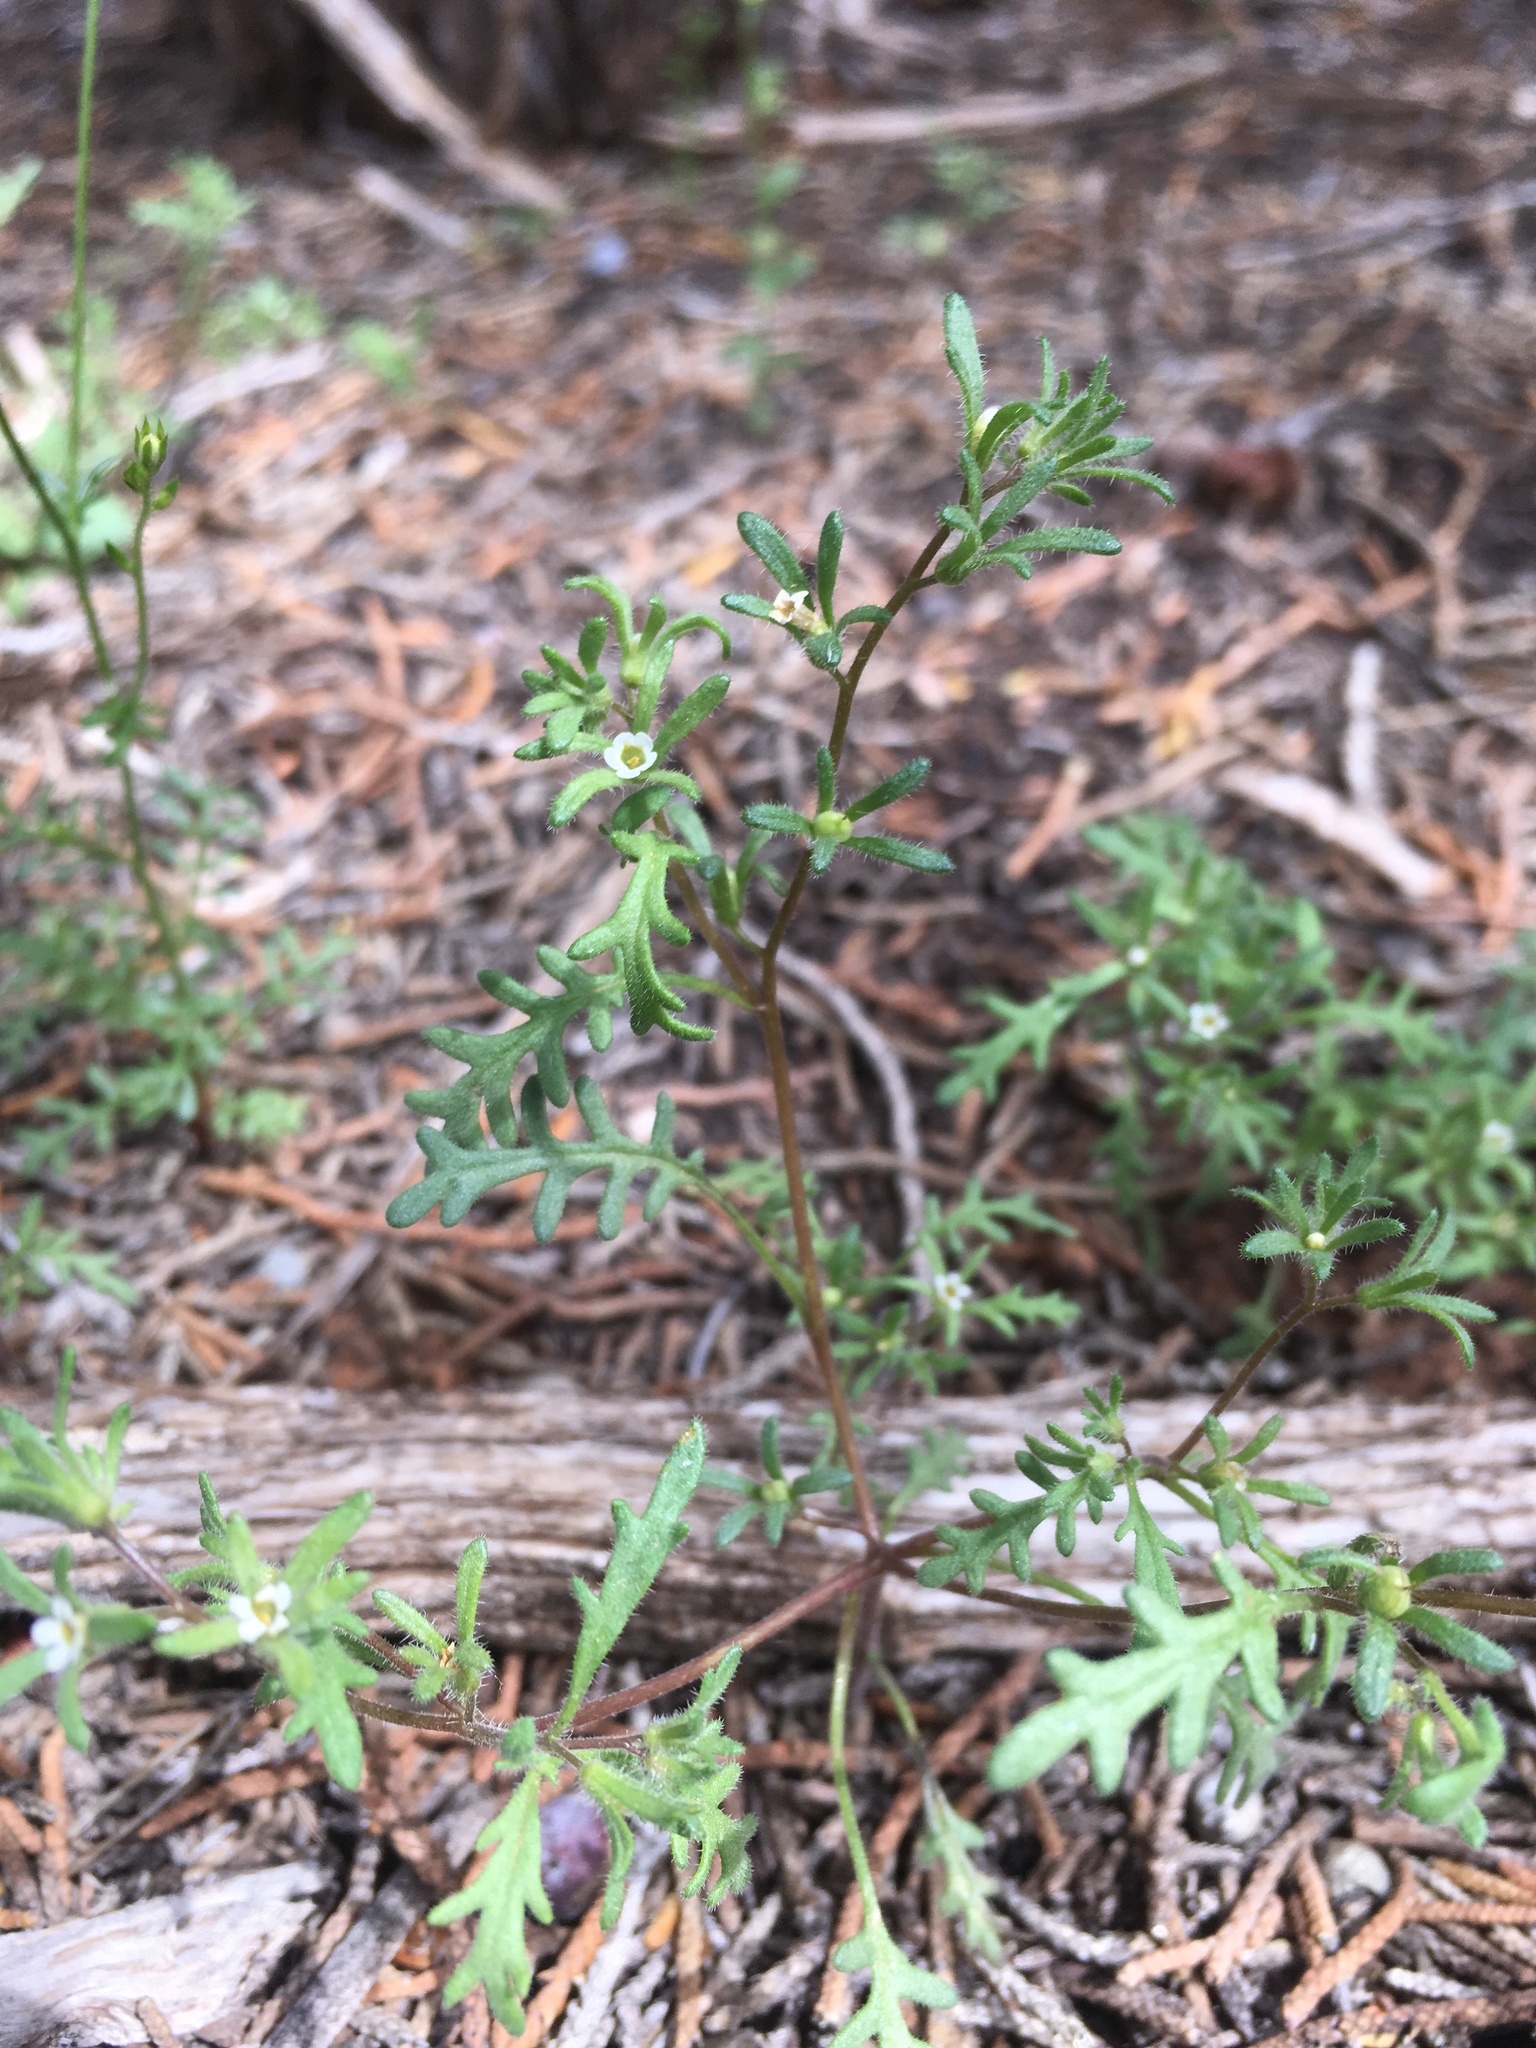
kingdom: Plantae
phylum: Tracheophyta
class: Magnoliopsida
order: Boraginales
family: Hydrophyllaceae
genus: Phacelia
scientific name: Phacelia ivesiana
